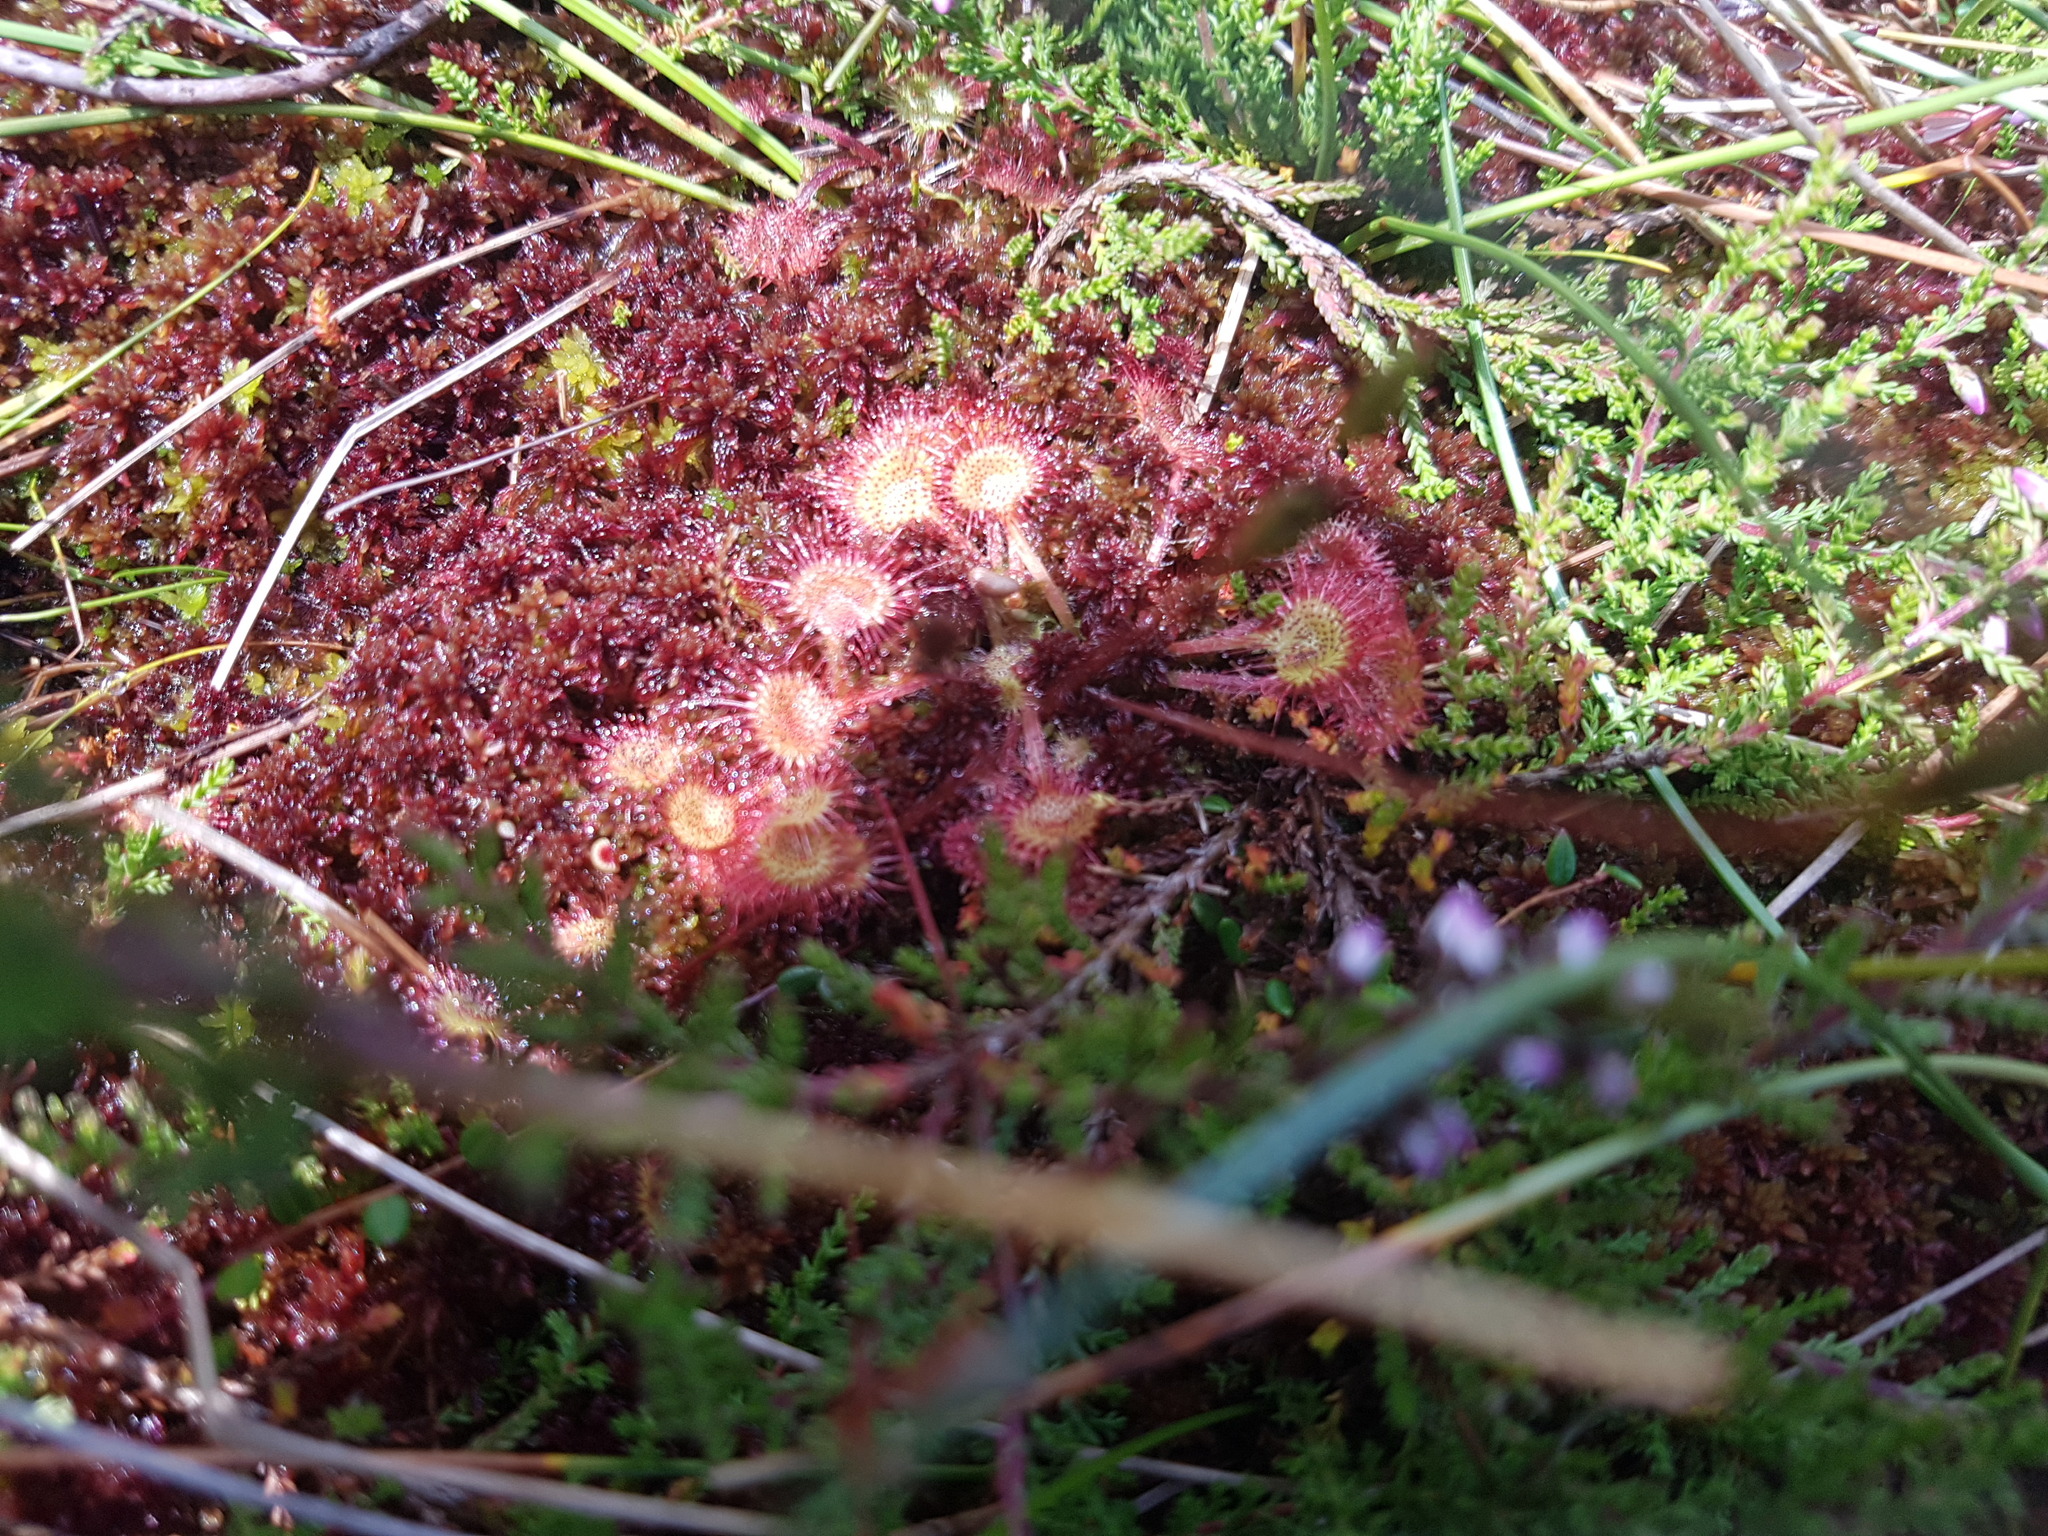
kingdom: Plantae
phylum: Tracheophyta
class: Magnoliopsida
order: Caryophyllales
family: Droseraceae
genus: Drosera
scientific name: Drosera rotundifolia
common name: Round-leaved sundew
